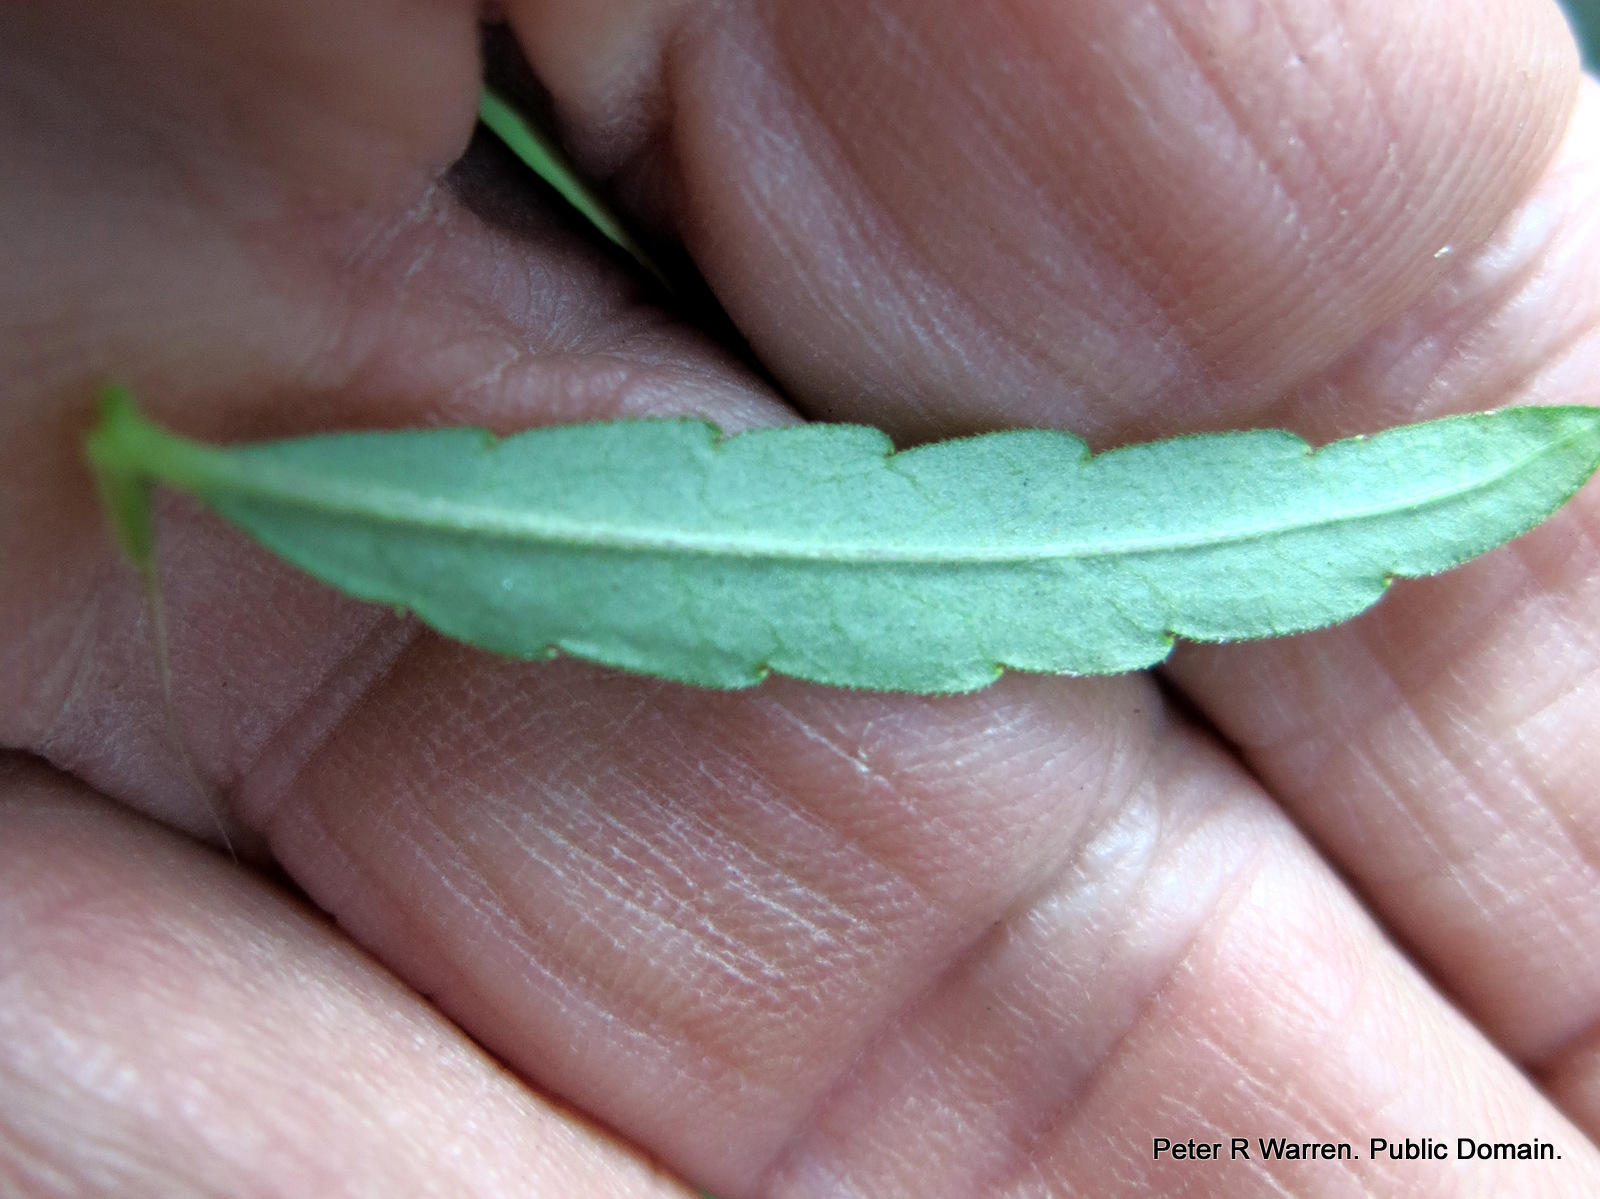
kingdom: Plantae
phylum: Tracheophyta
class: Magnoliopsida
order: Asterales
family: Campanulaceae
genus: Monopsis
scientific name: Monopsis stellarioides
